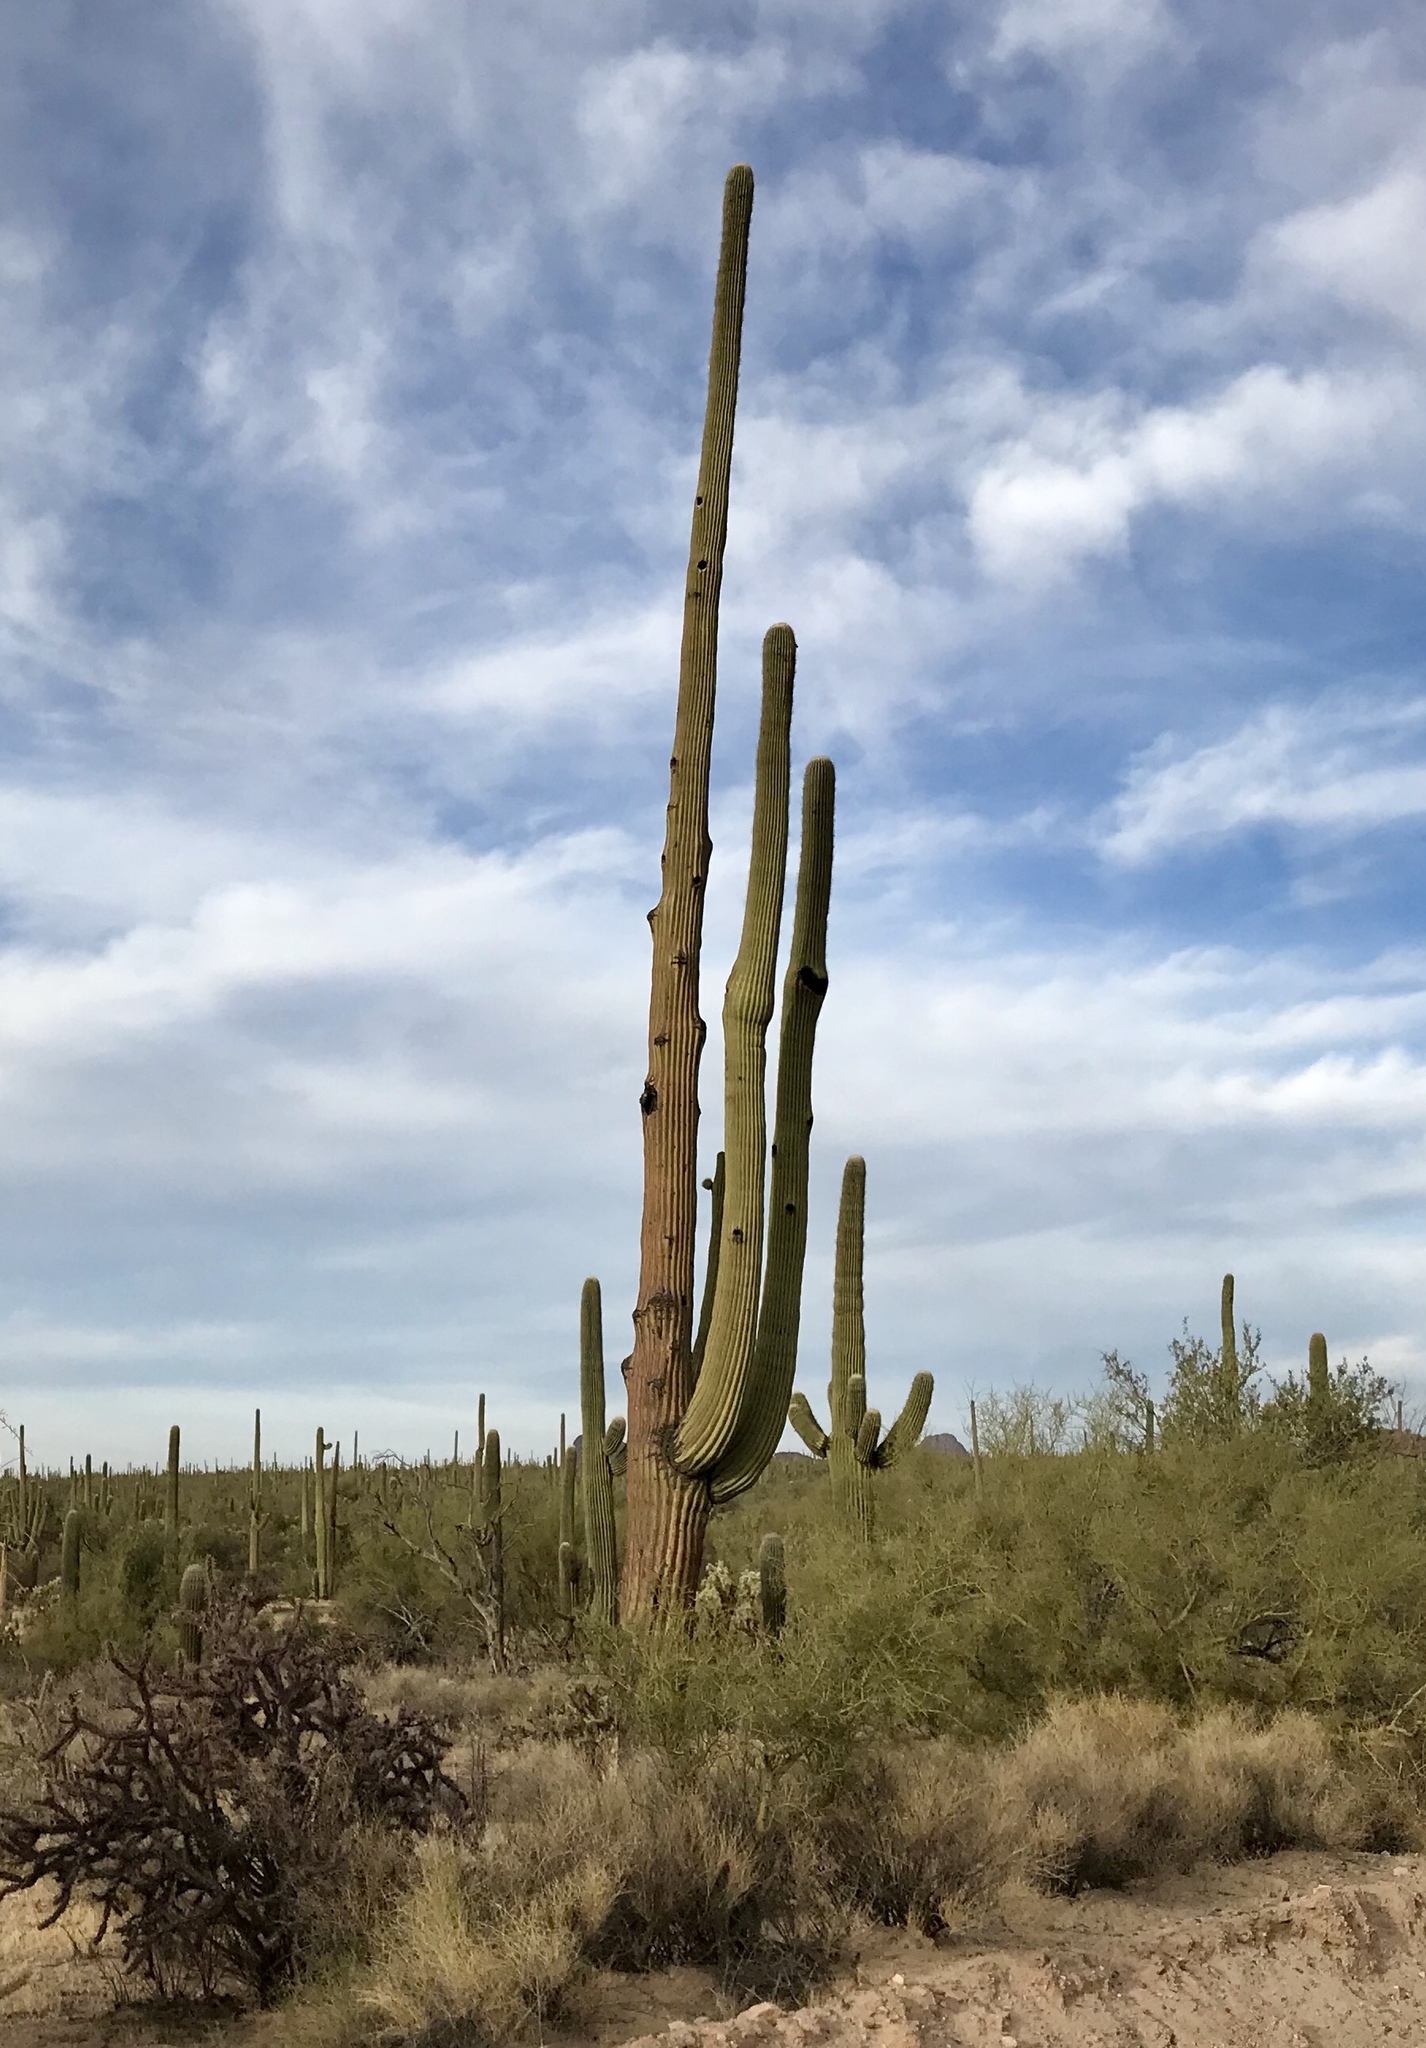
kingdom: Plantae
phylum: Tracheophyta
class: Magnoliopsida
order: Caryophyllales
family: Cactaceae
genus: Carnegiea
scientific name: Carnegiea gigantea
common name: Saguaro
